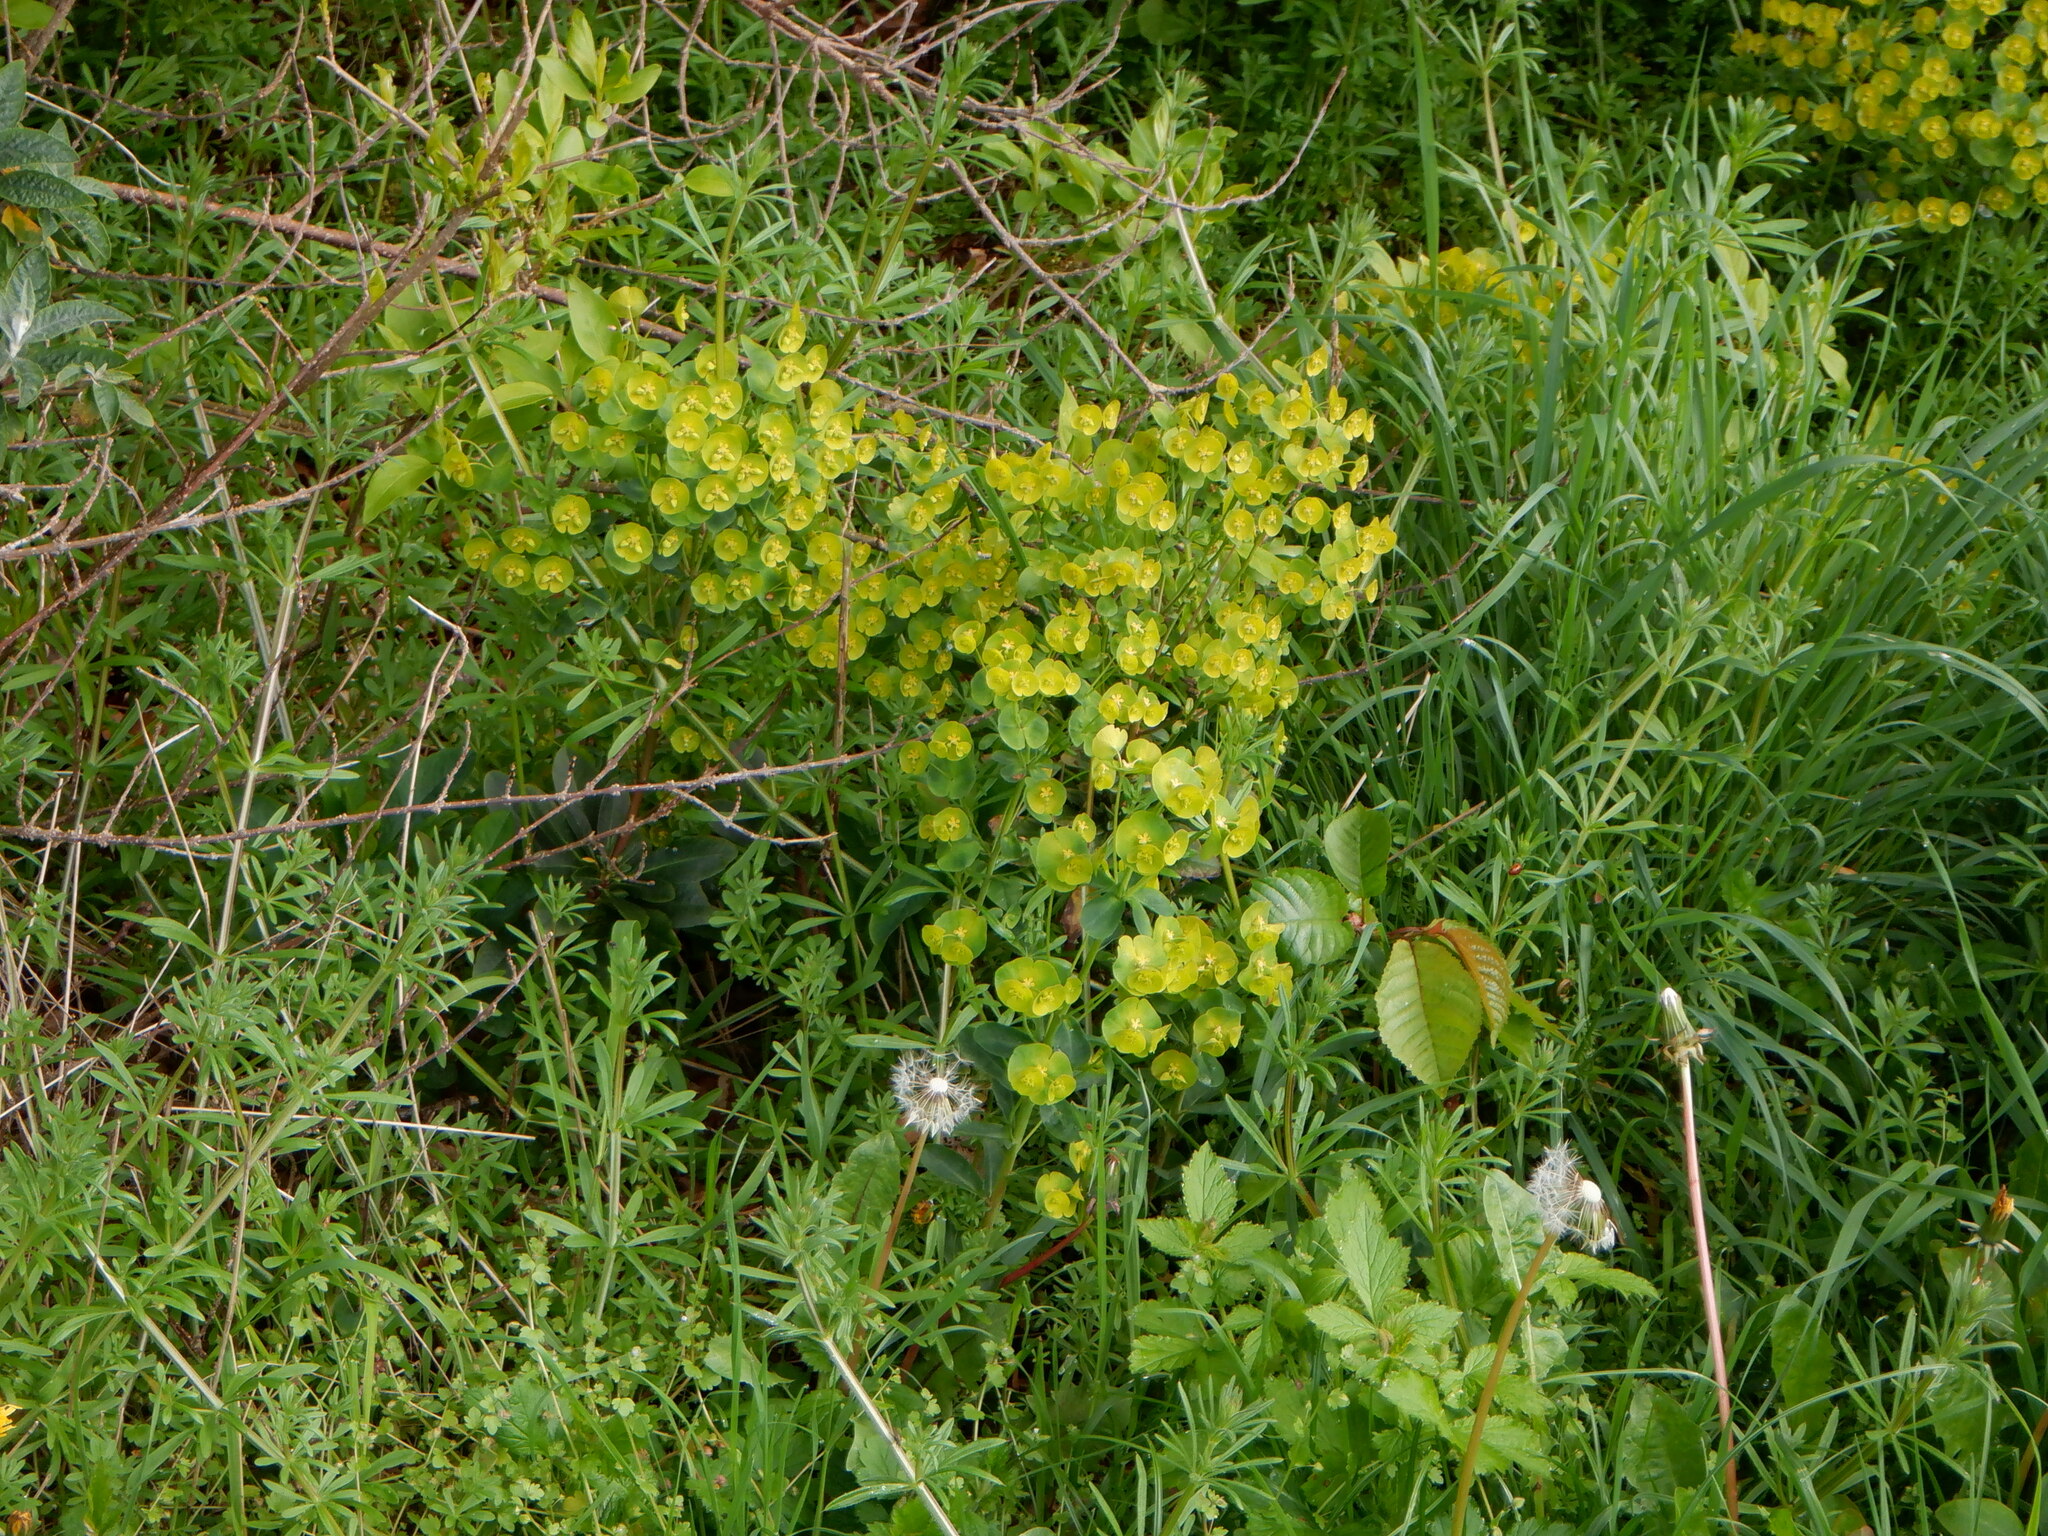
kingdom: Plantae
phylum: Tracheophyta
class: Magnoliopsida
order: Malpighiales
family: Euphorbiaceae
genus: Euphorbia
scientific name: Euphorbia amygdaloides
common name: Wood spurge
